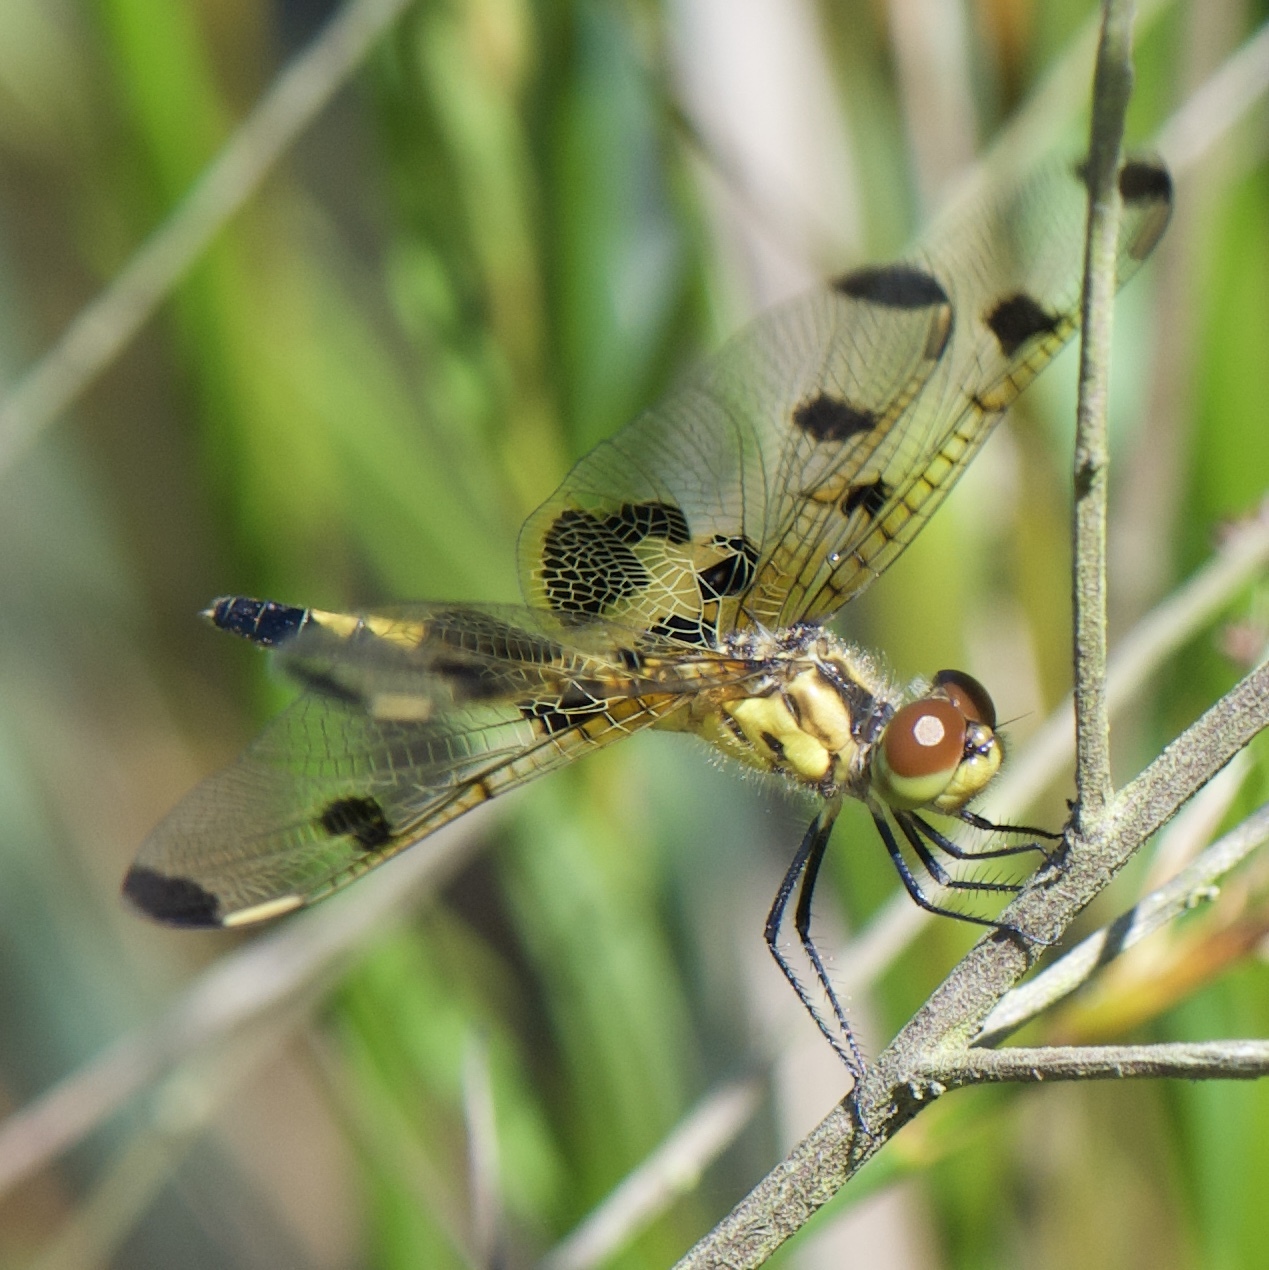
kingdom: Animalia
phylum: Arthropoda
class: Insecta
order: Odonata
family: Libellulidae
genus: Celithemis
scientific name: Celithemis elisa
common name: Calico pennant
